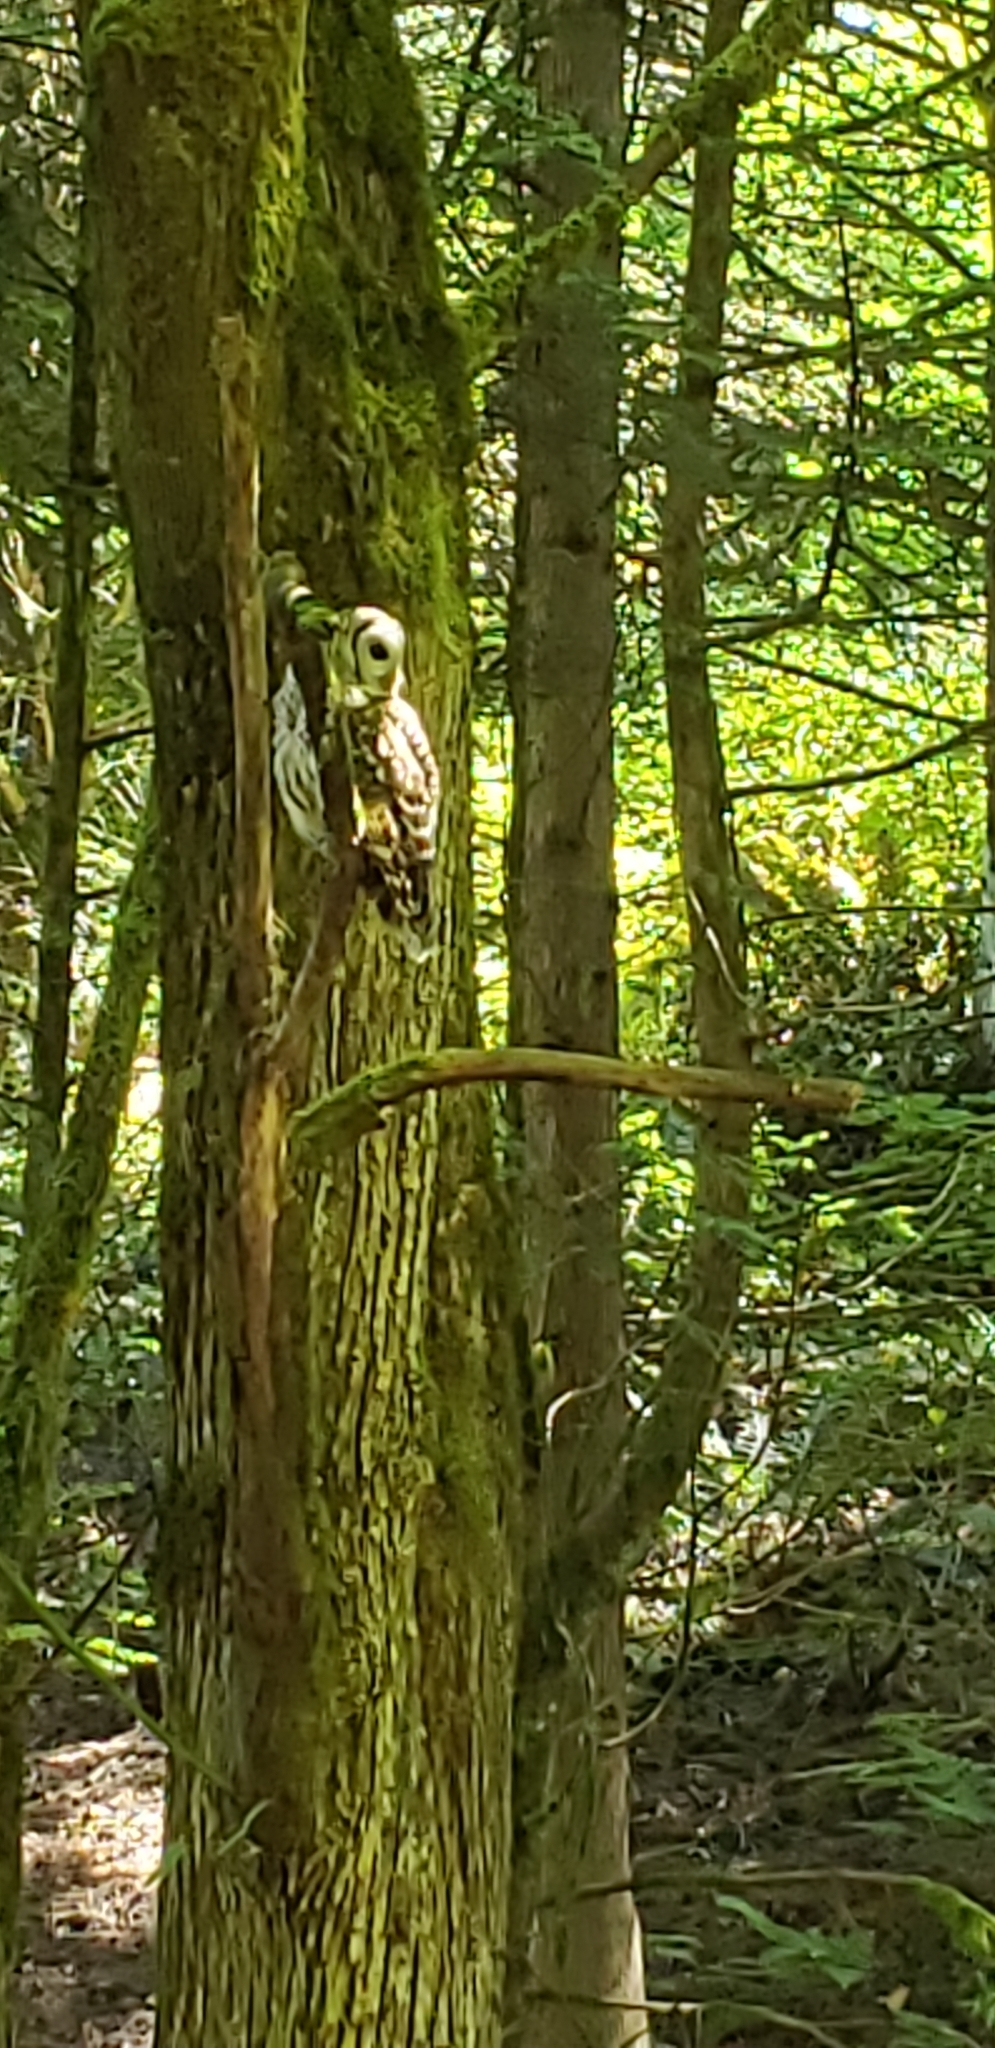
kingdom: Animalia
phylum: Chordata
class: Aves
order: Strigiformes
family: Strigidae
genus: Strix
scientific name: Strix varia
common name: Barred owl
